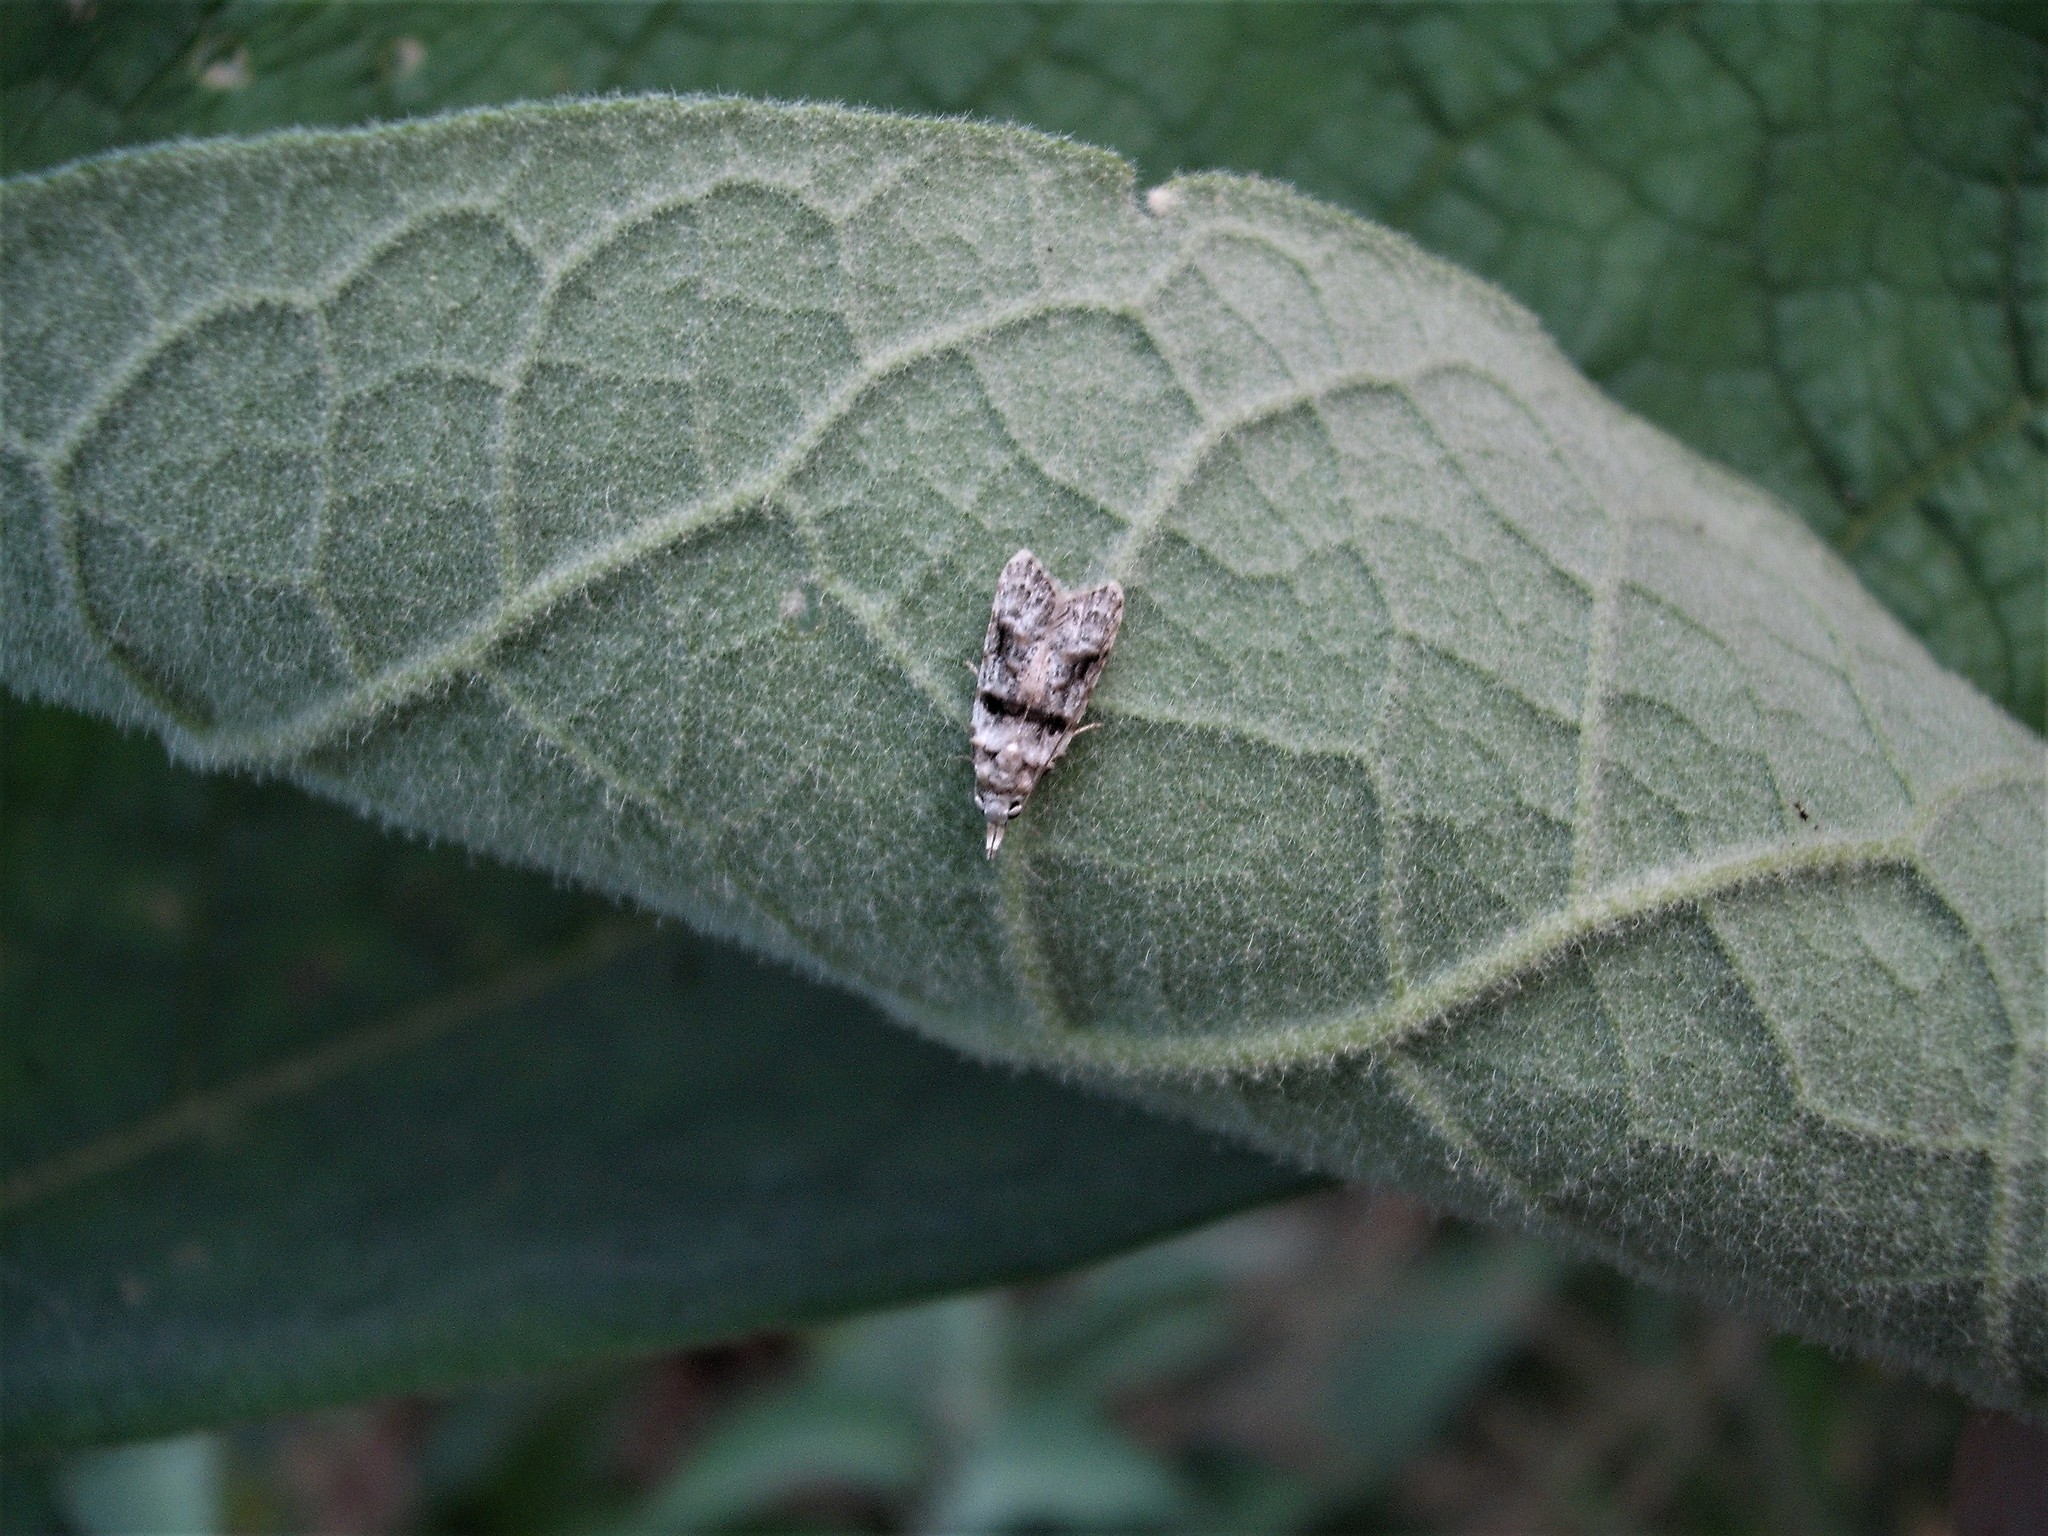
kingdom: Animalia
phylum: Arthropoda
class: Insecta
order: Lepidoptera
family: Carposinidae
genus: Coscinoptycha
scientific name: Coscinoptycha improbana
